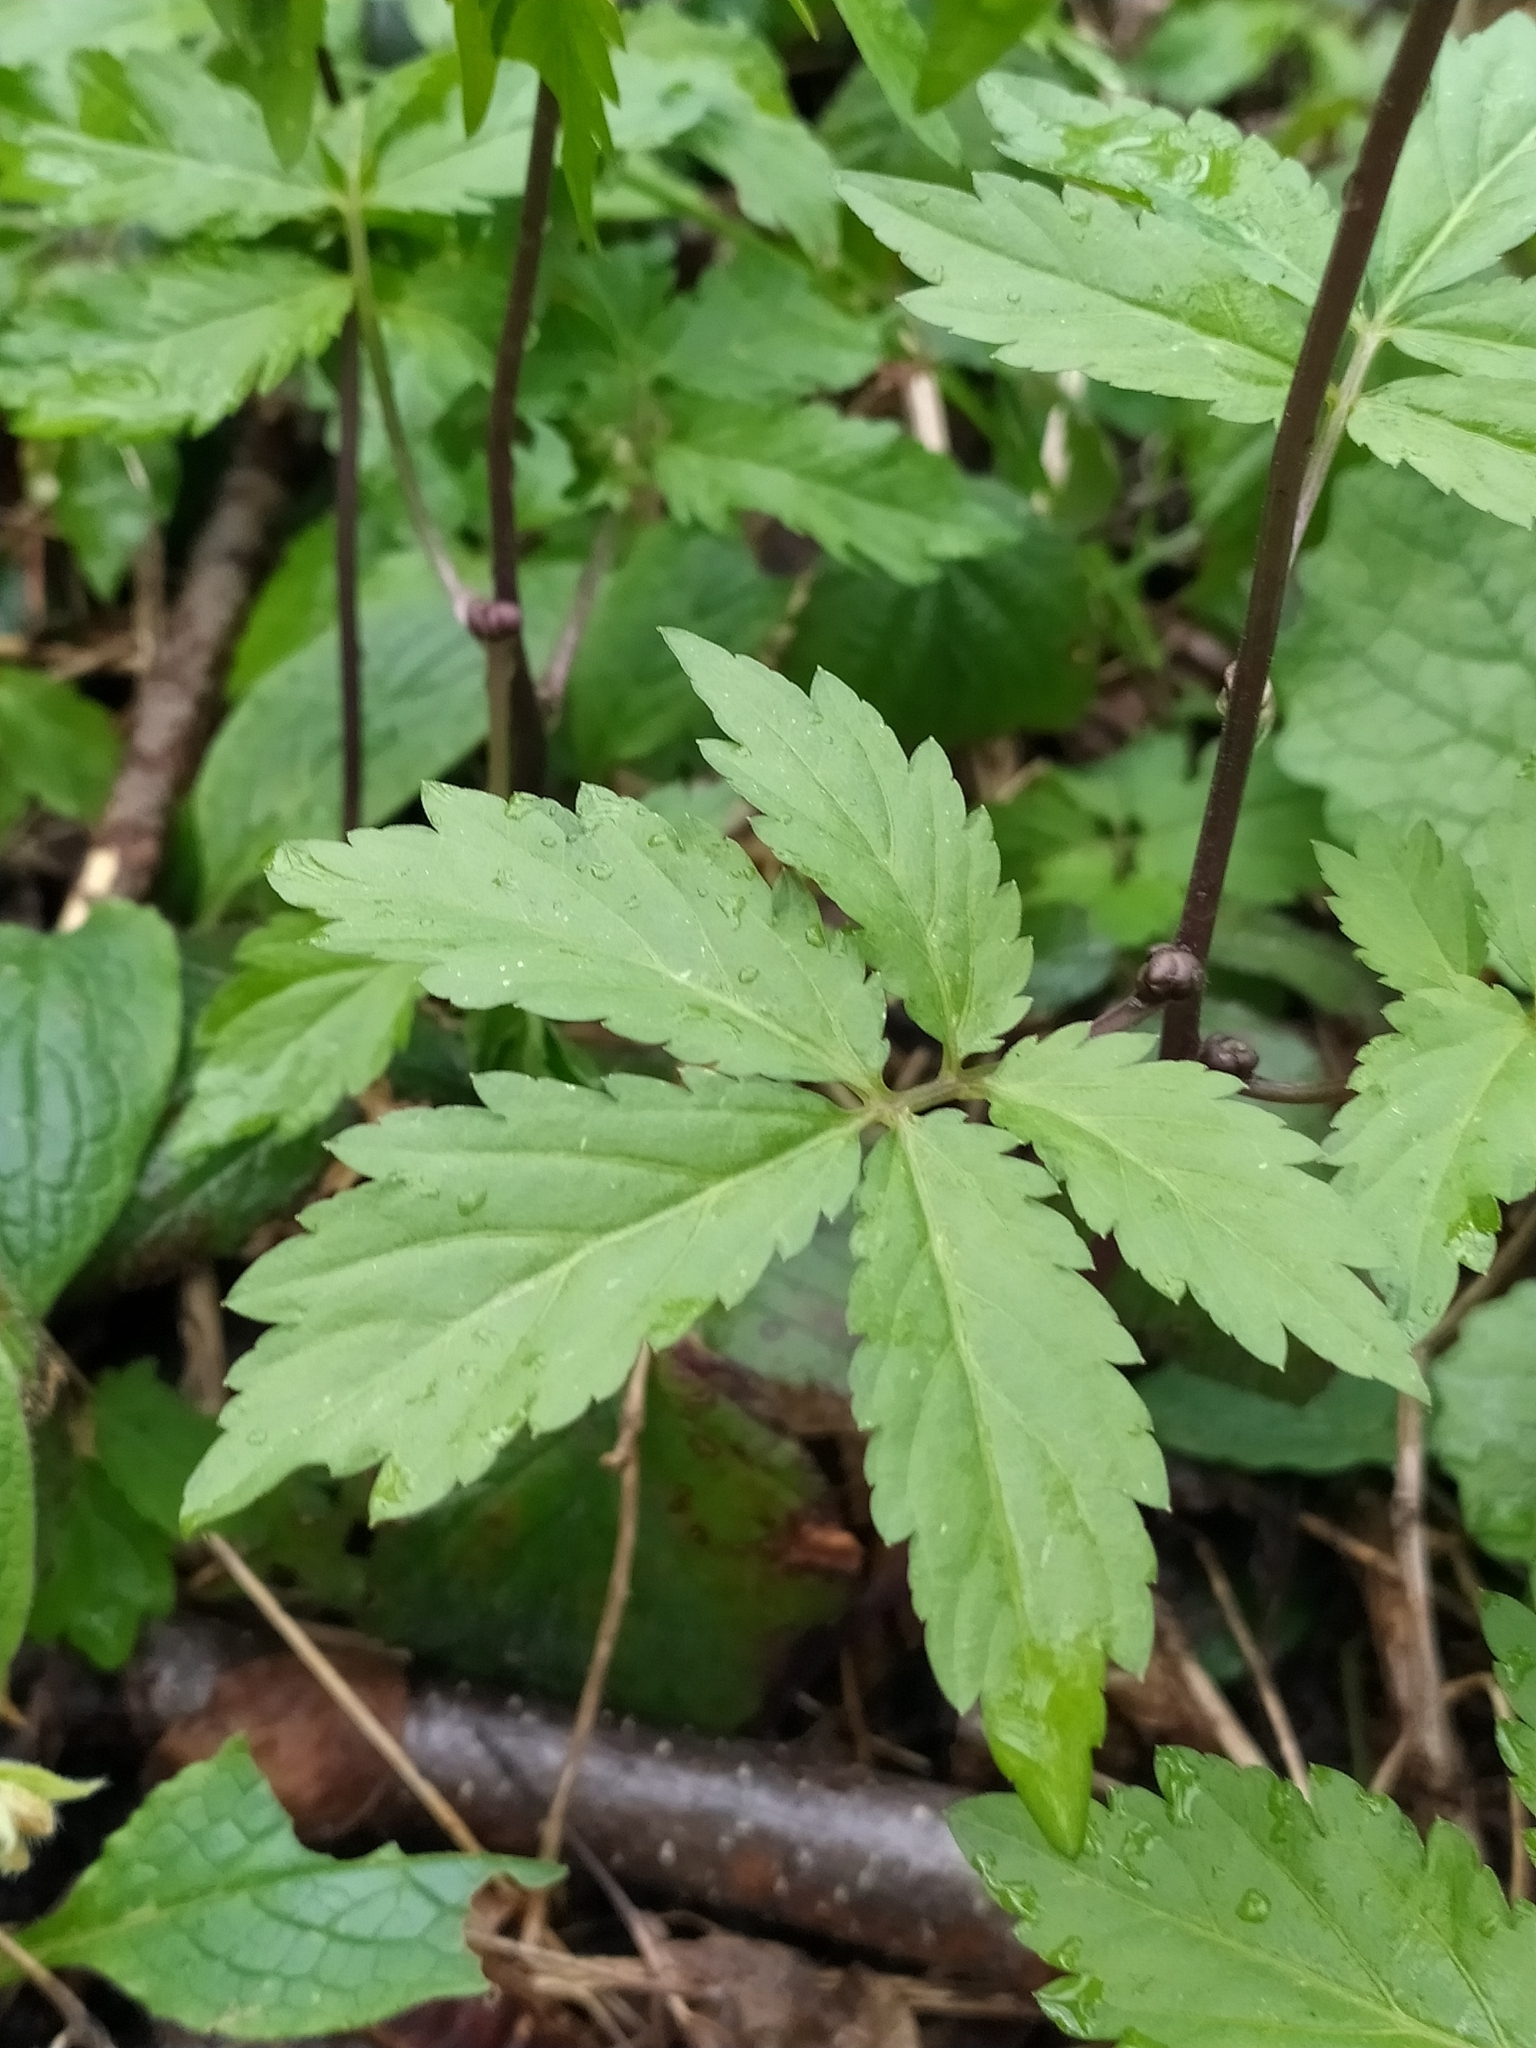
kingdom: Plantae
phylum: Tracheophyta
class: Magnoliopsida
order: Brassicales
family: Brassicaceae
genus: Cardamine
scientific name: Cardamine bulbifera
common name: Coralroot bittercress
